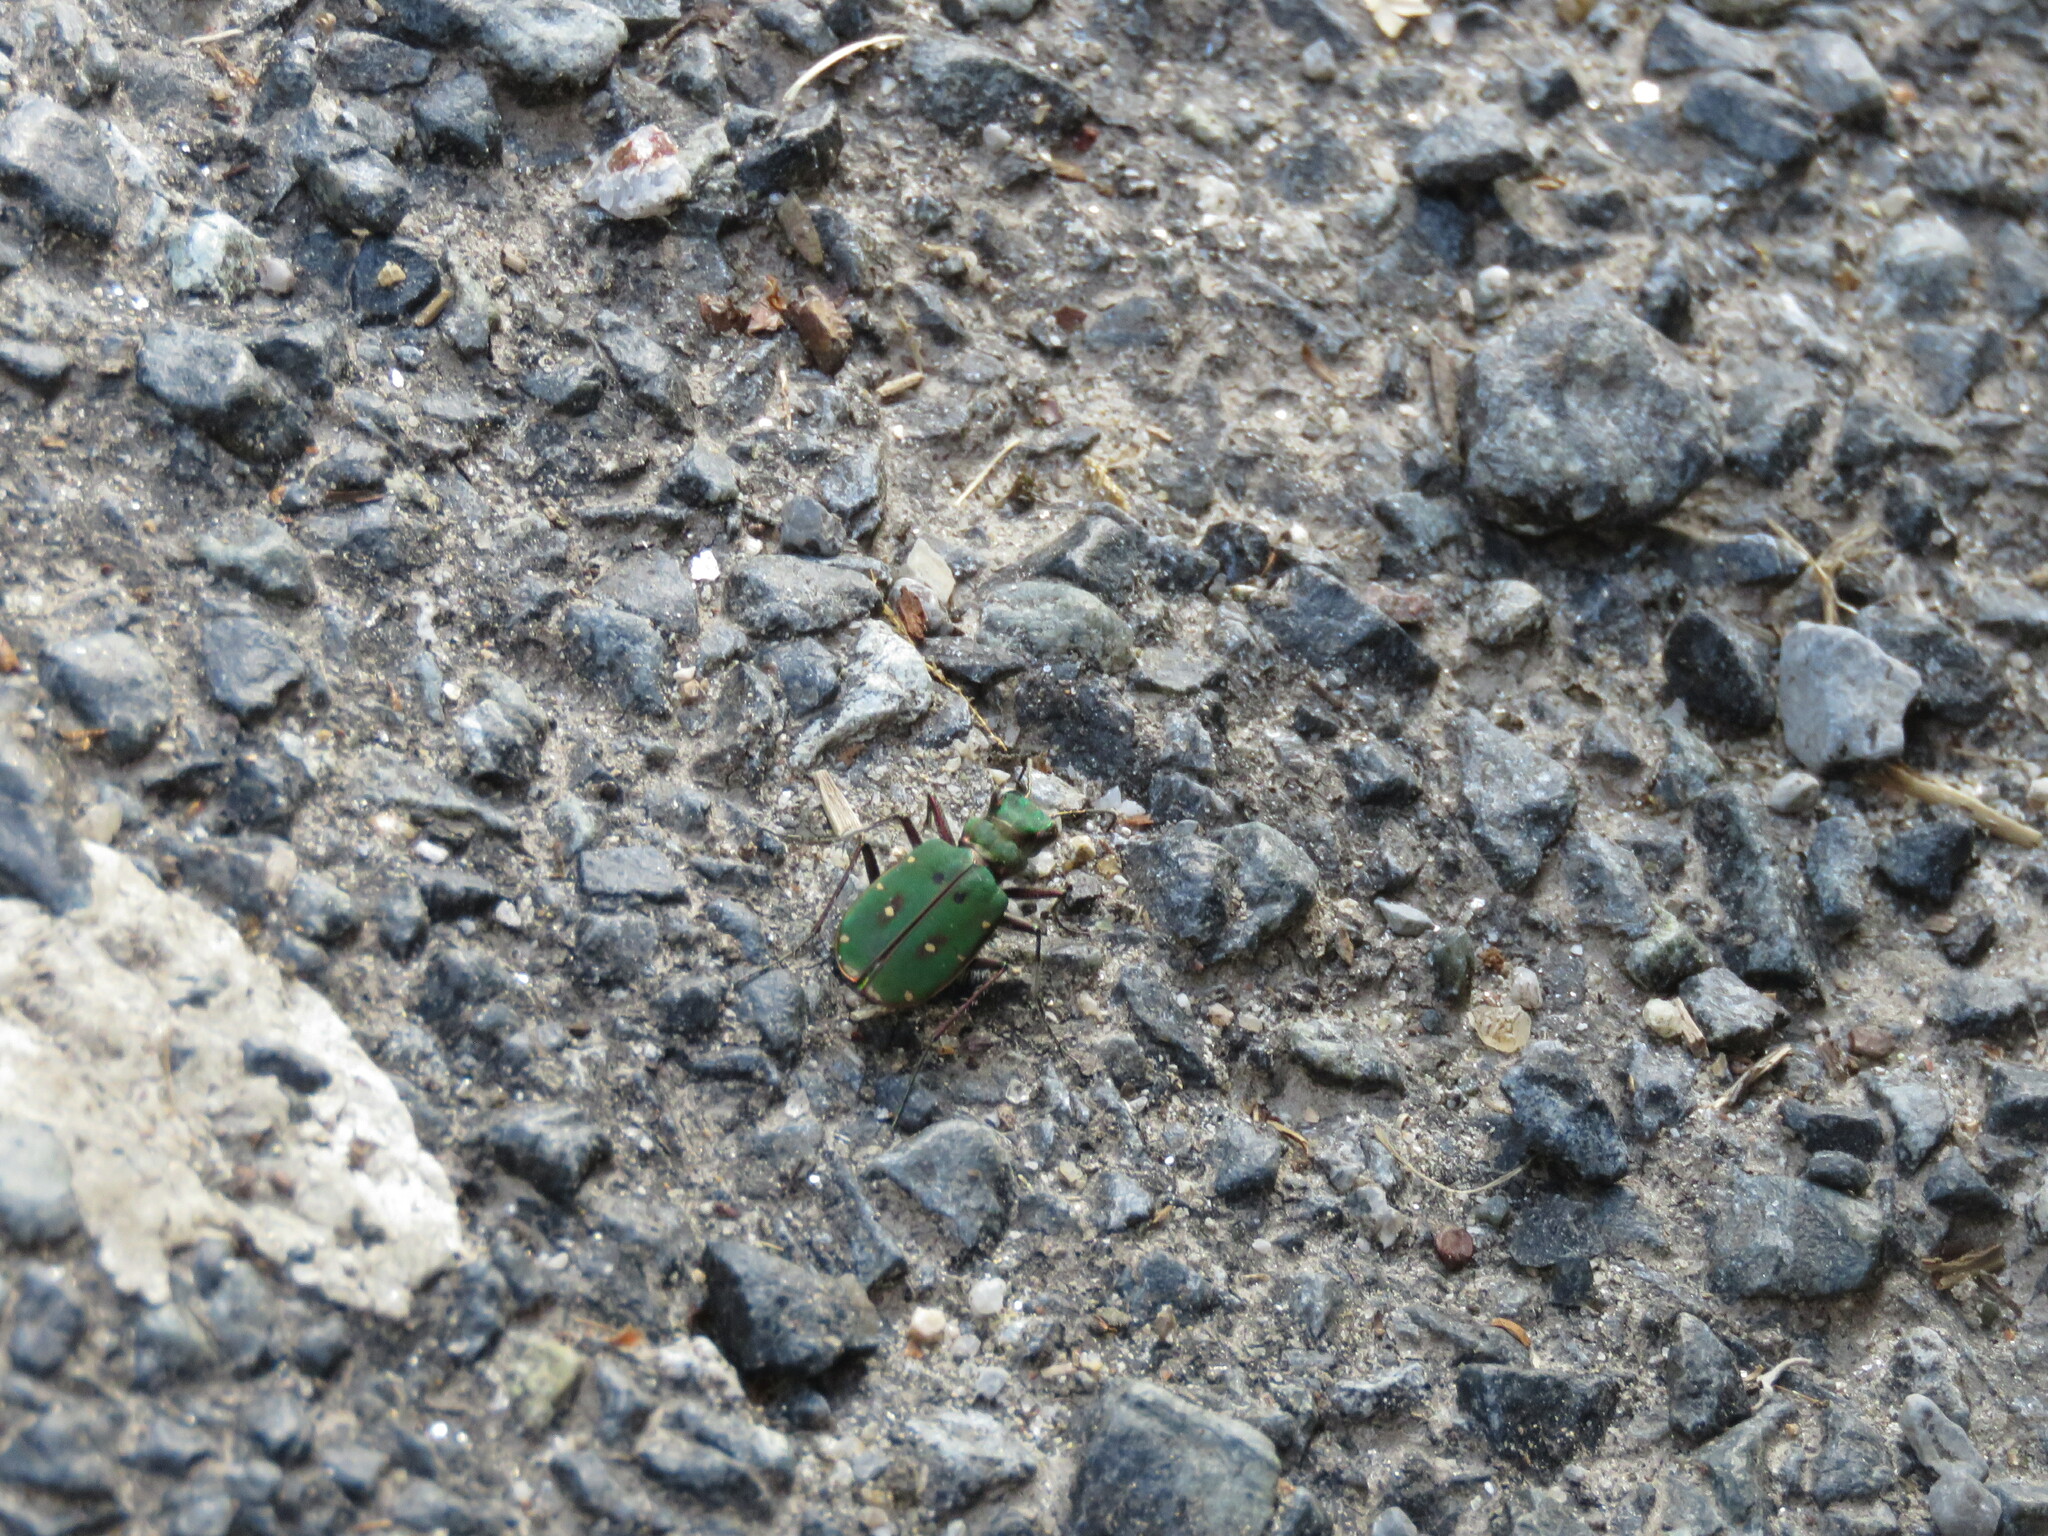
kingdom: Animalia
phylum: Arthropoda
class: Insecta
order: Coleoptera
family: Carabidae
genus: Cicindela
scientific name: Cicindela campestris
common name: Common tiger beetle
